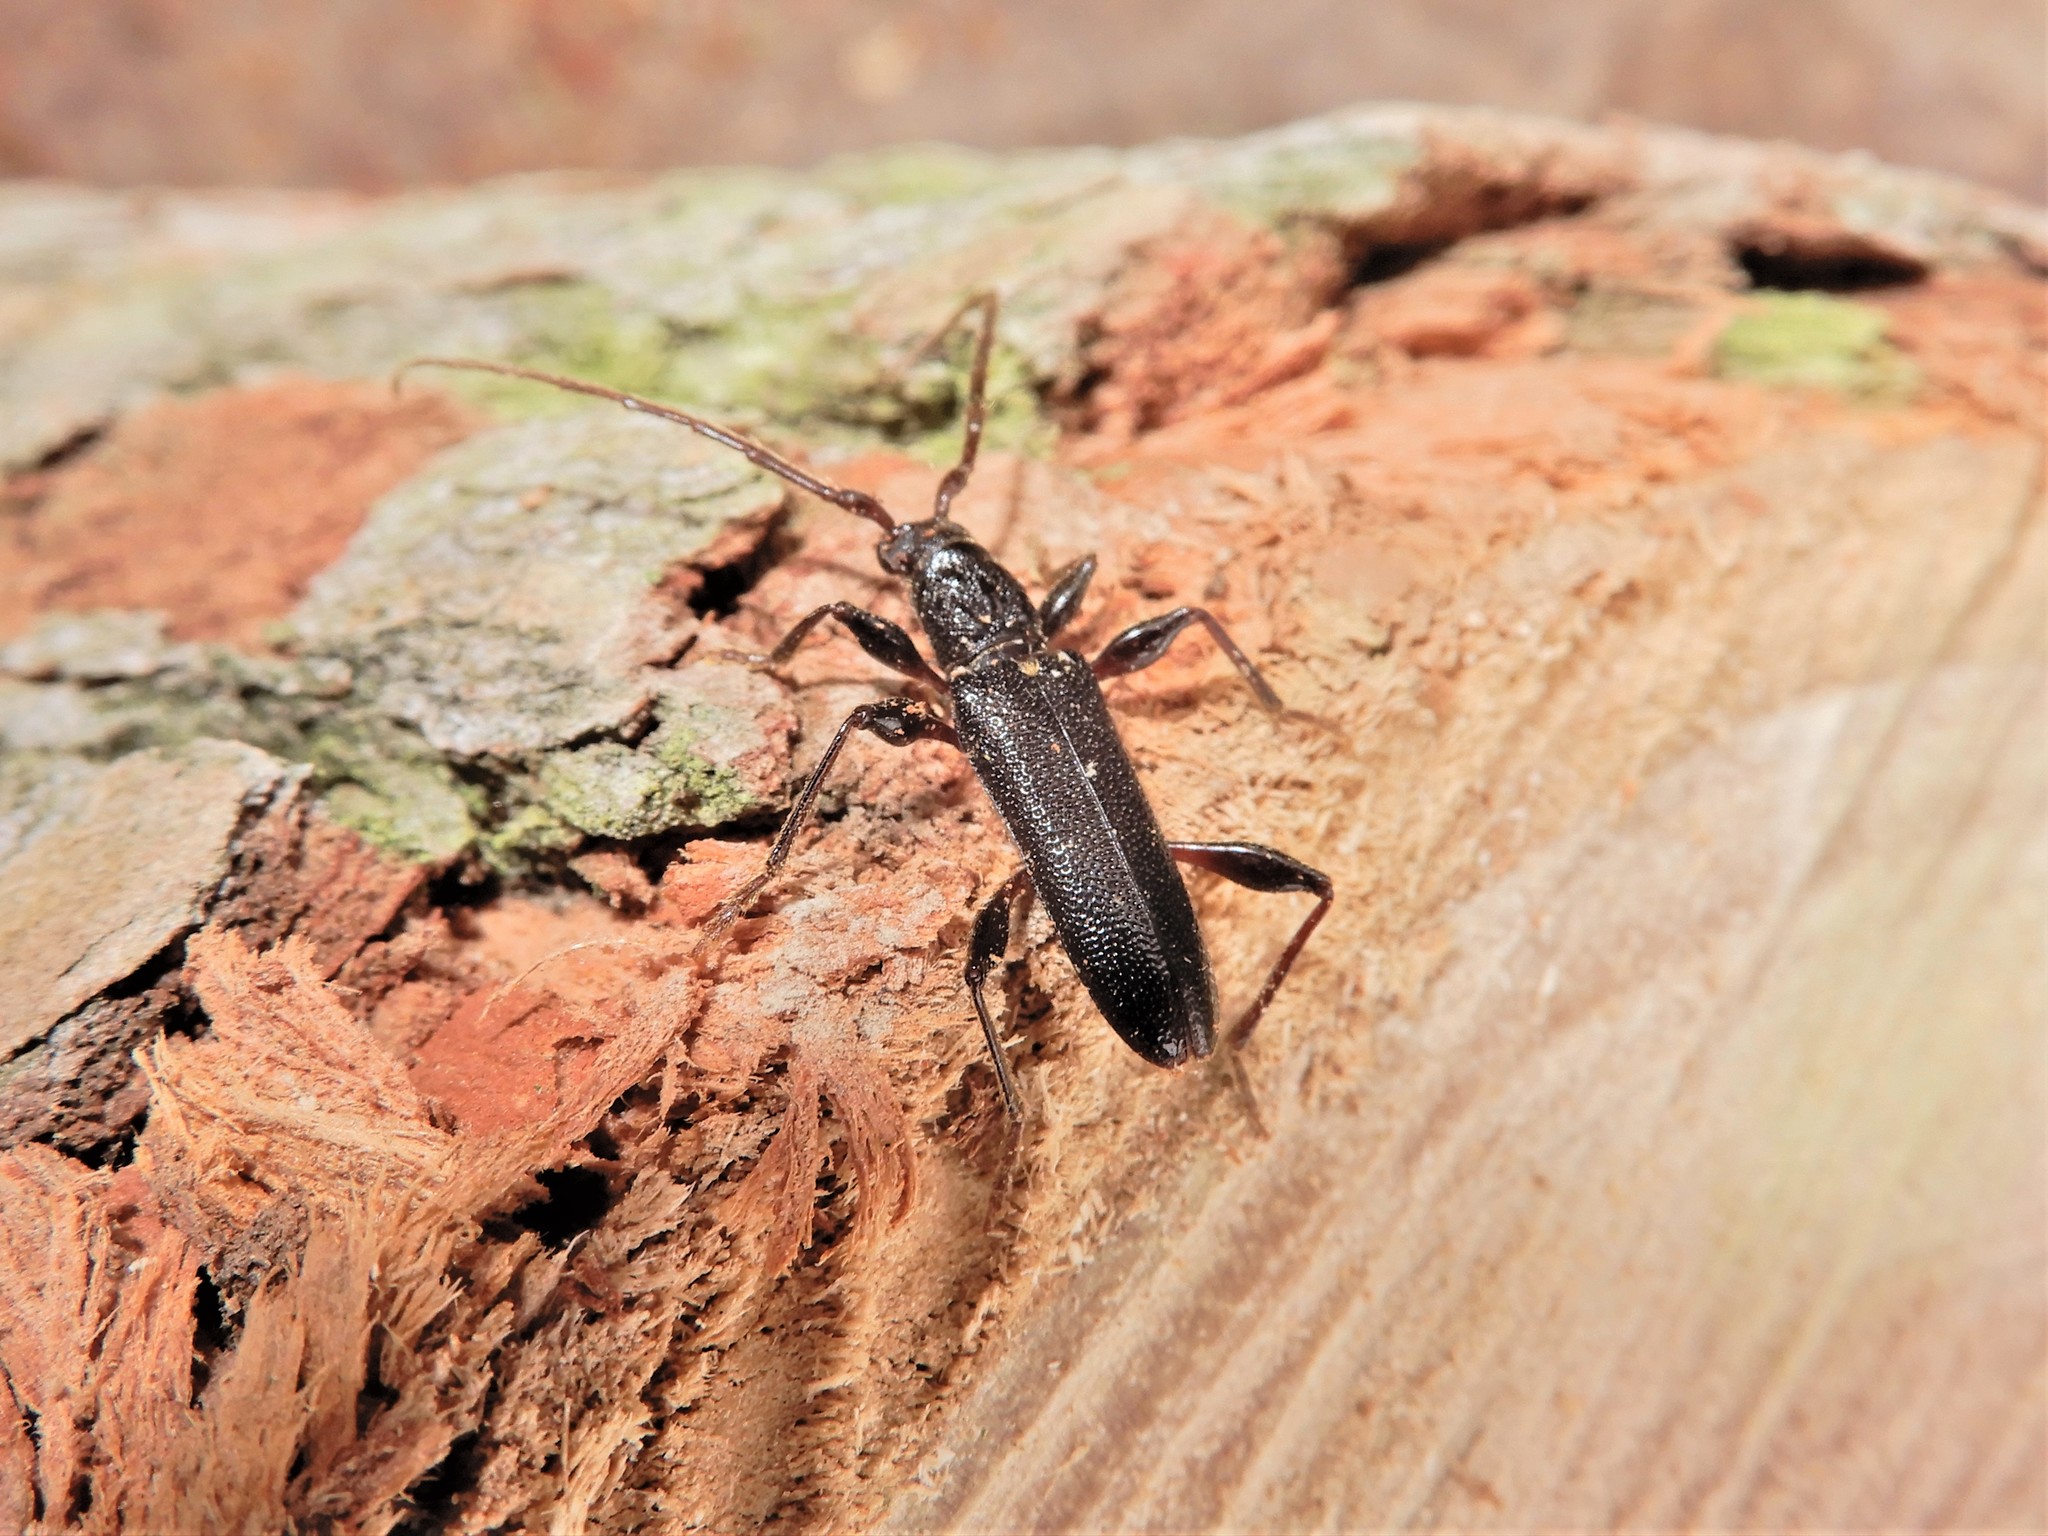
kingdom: Animalia
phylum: Arthropoda
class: Insecta
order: Coleoptera
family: Cerambycidae
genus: Callidiopis
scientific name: Callidiopis scutellaris
